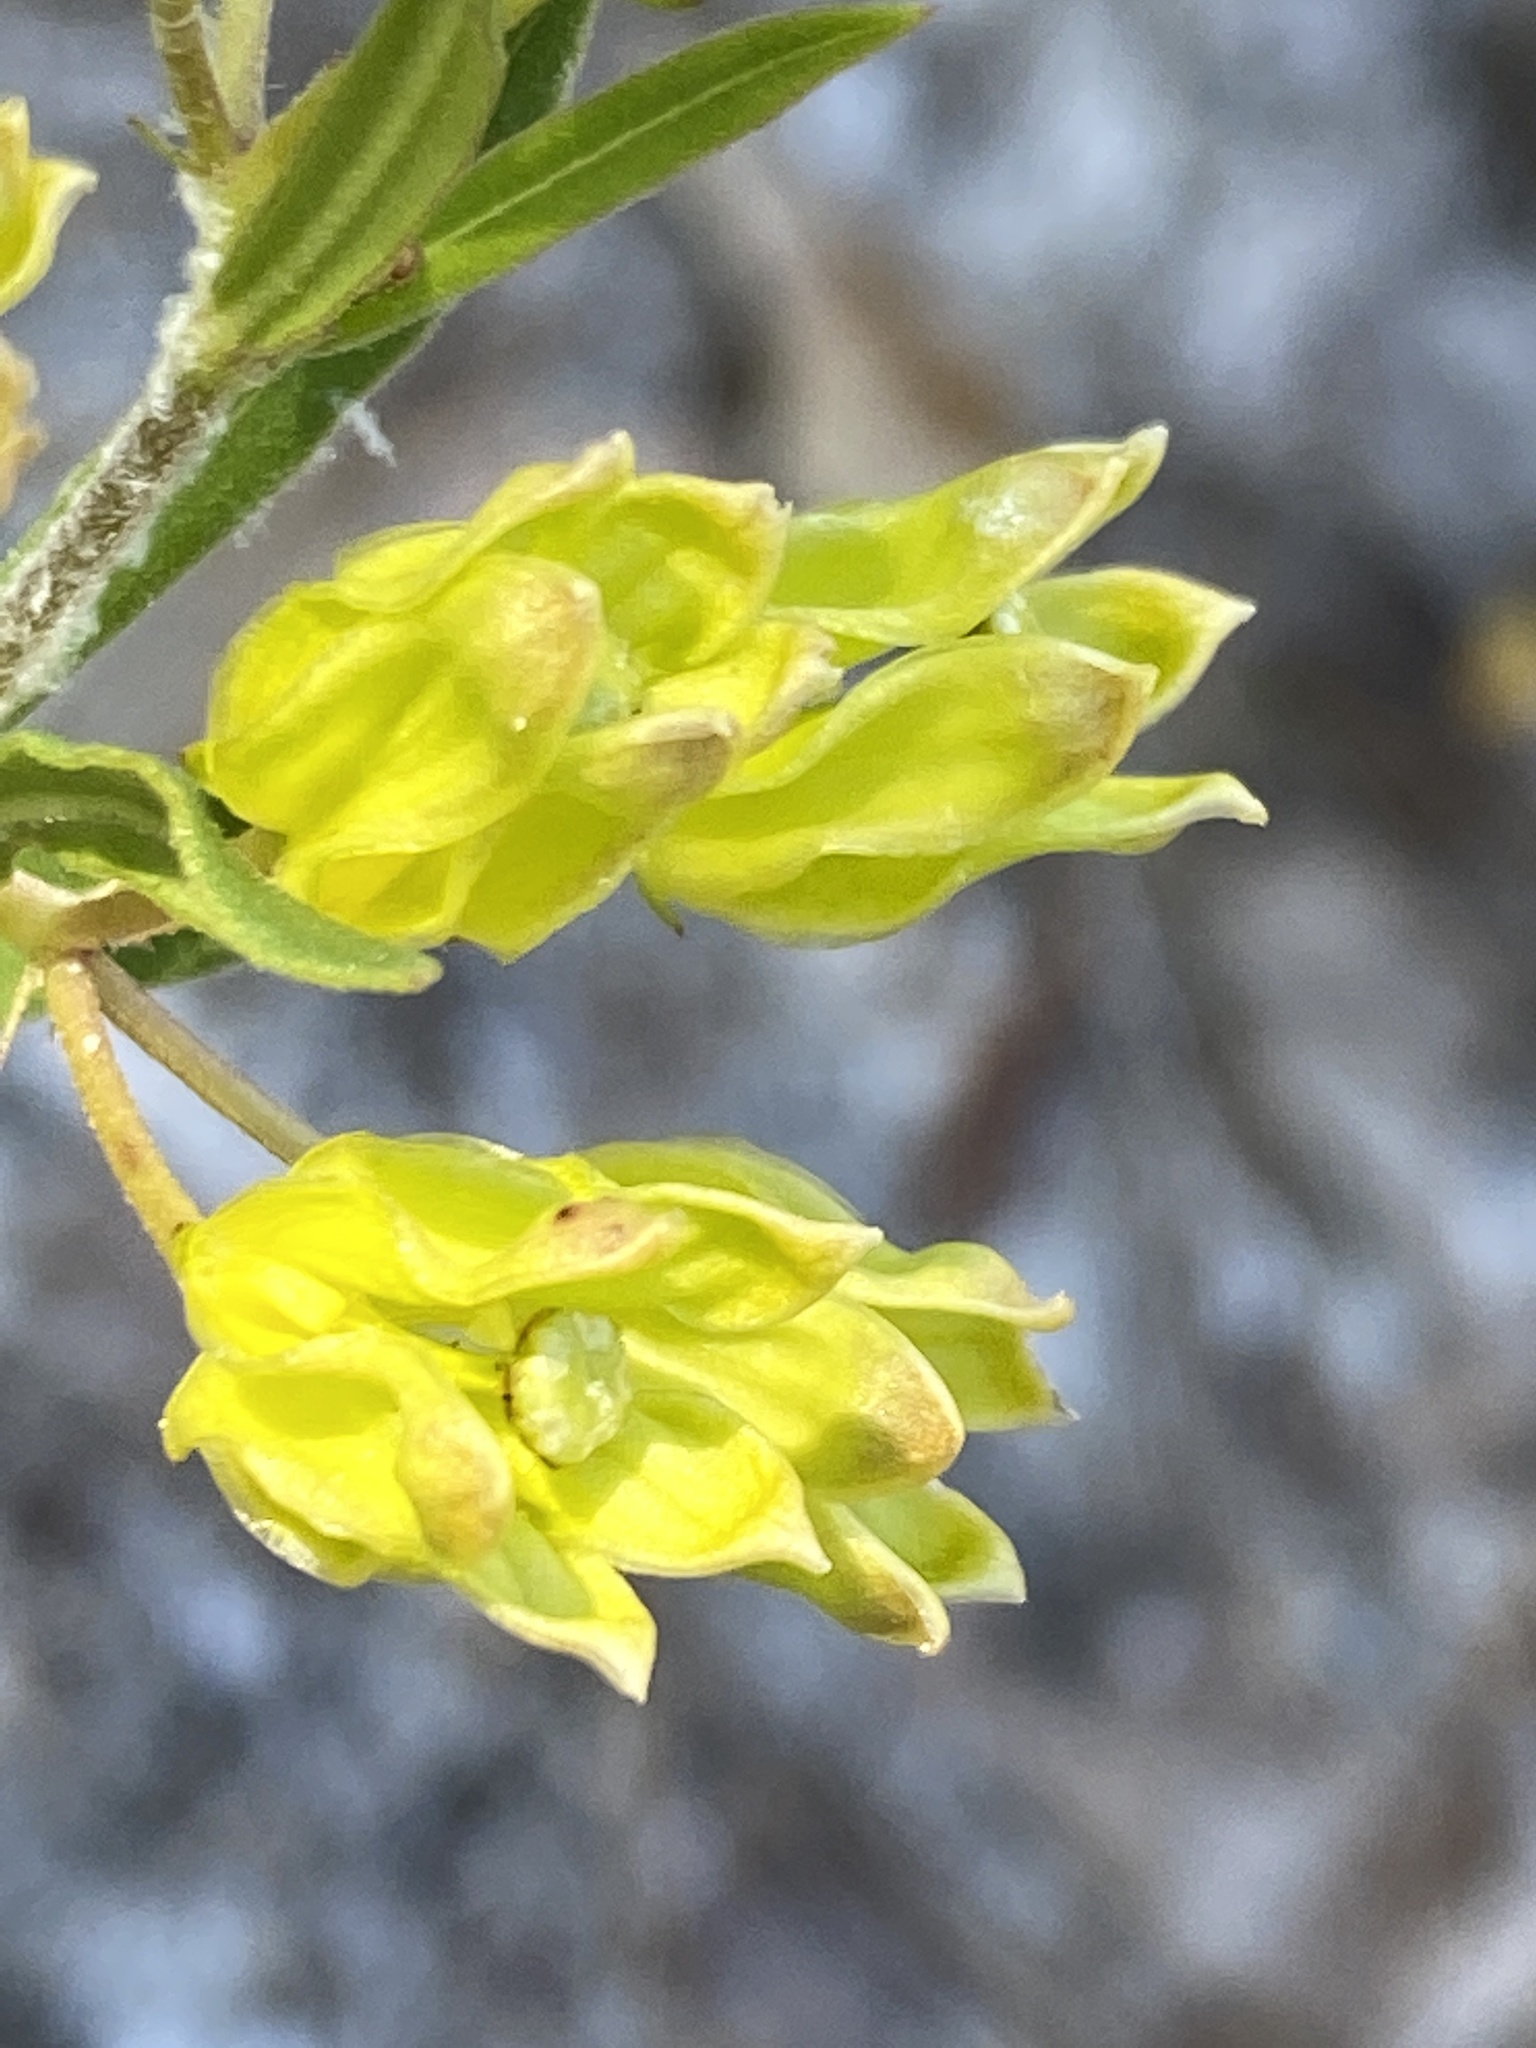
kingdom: Plantae
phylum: Tracheophyta
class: Magnoliopsida
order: Gentianales
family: Apocynaceae
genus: Asclepias
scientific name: Asclepias pedicellata
